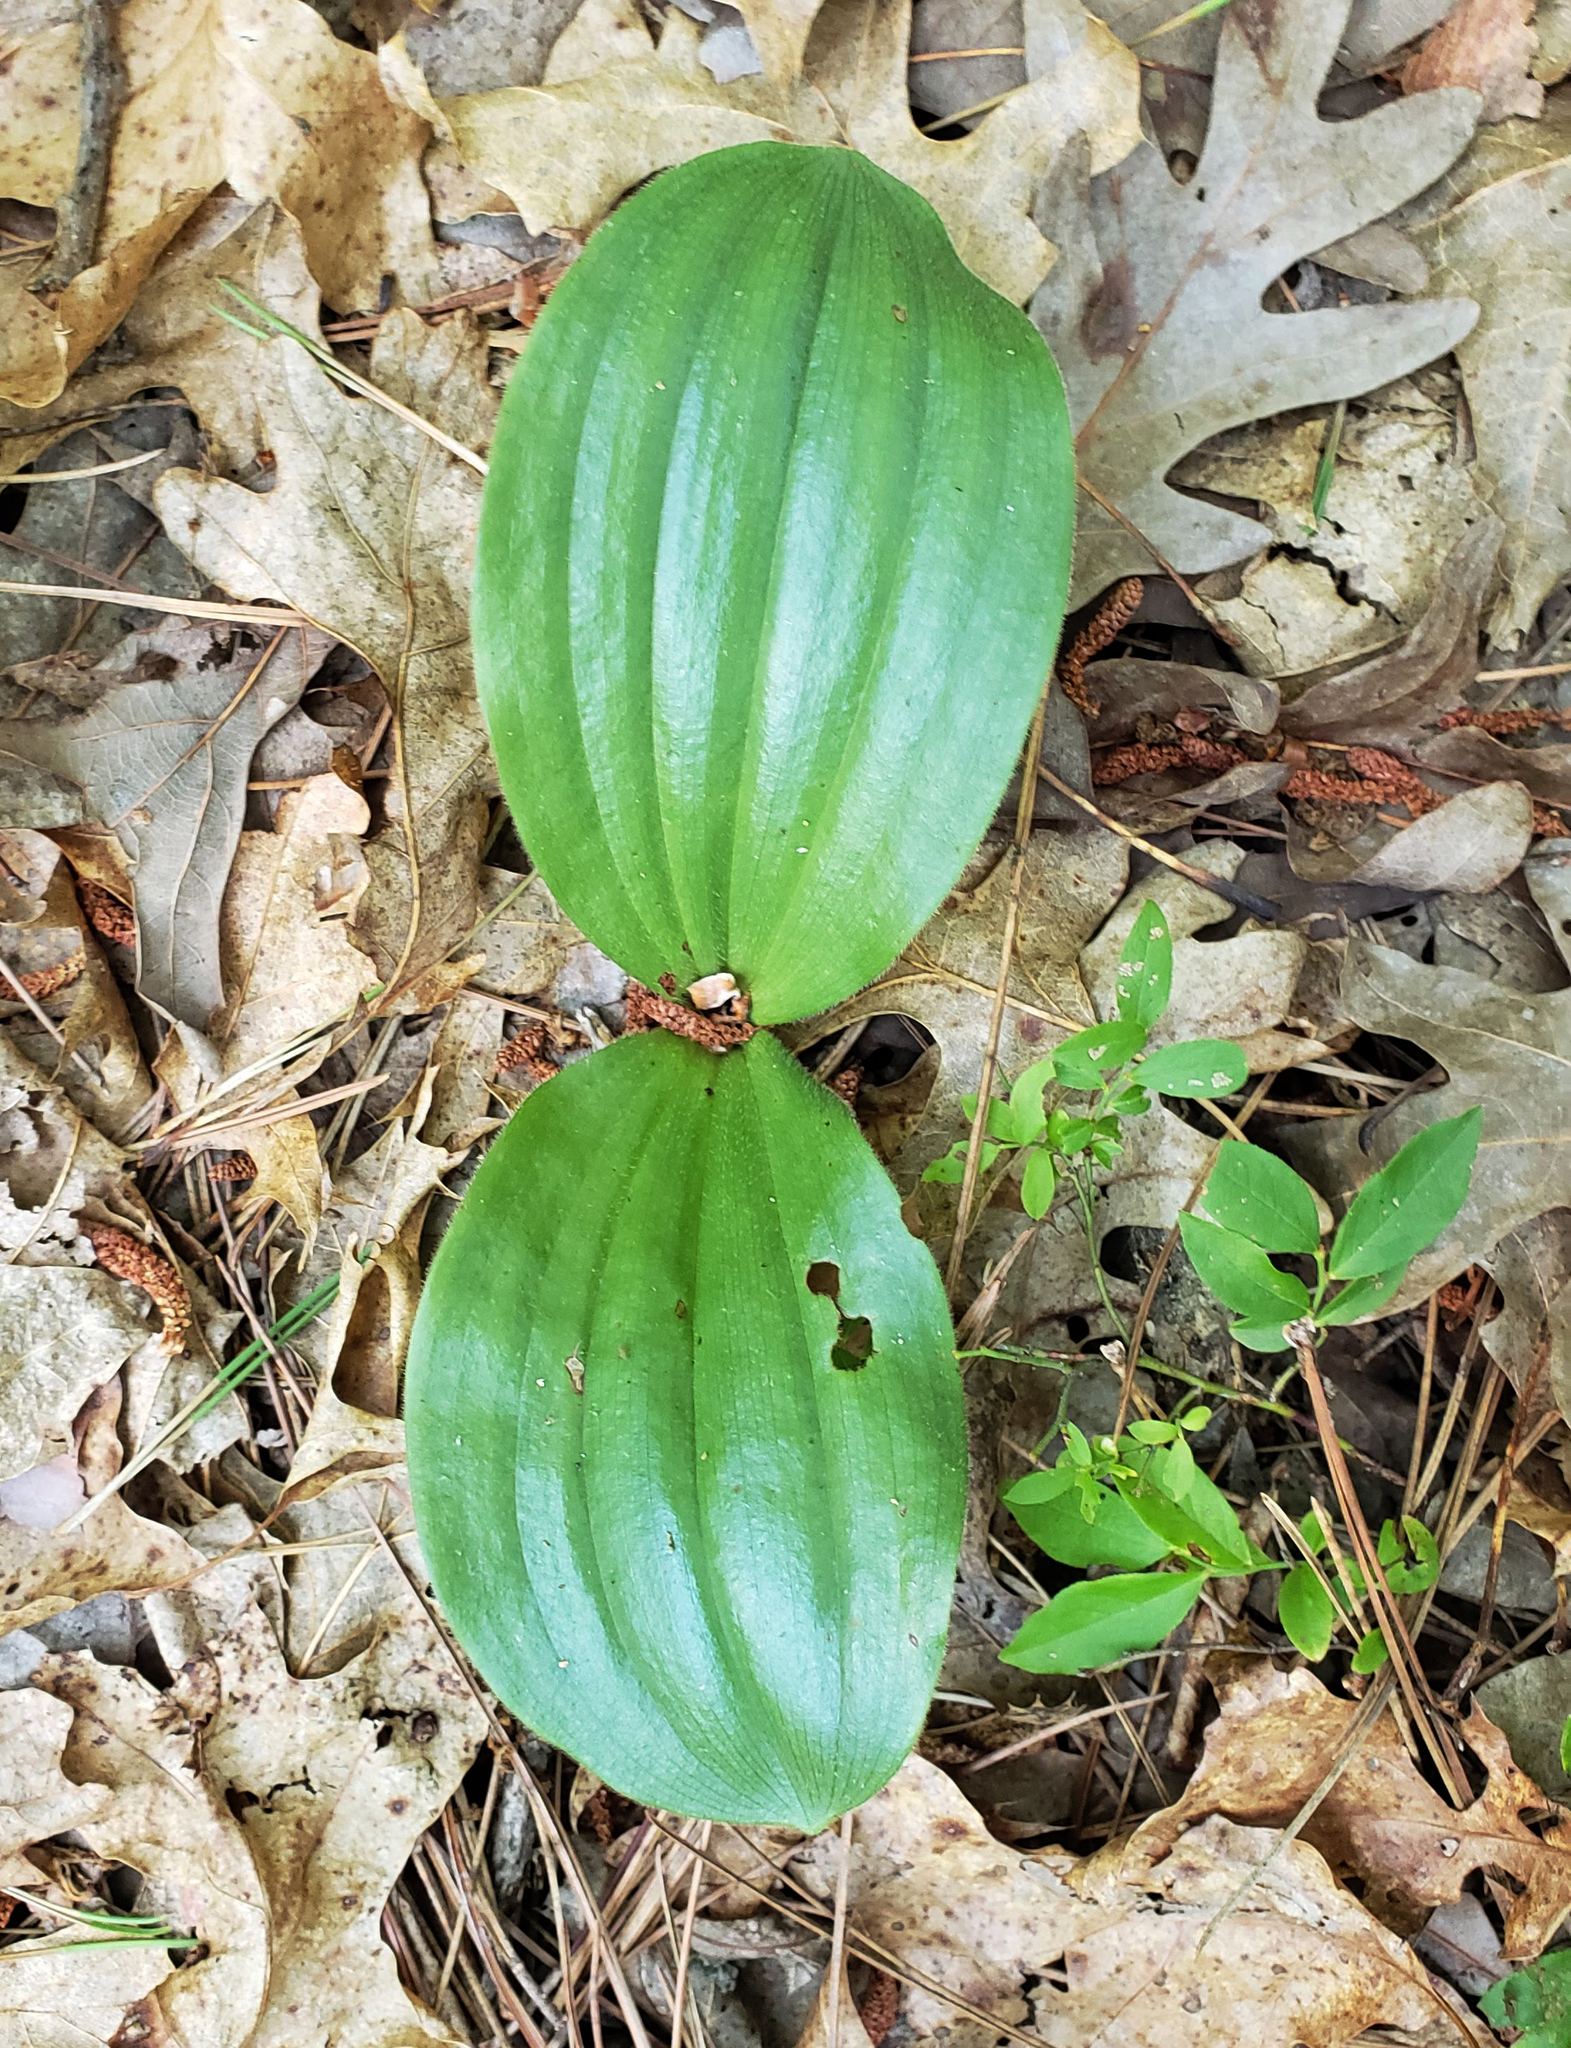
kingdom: Plantae
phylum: Tracheophyta
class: Liliopsida
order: Asparagales
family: Orchidaceae
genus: Cypripedium
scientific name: Cypripedium acaule
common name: Pink lady's-slipper
